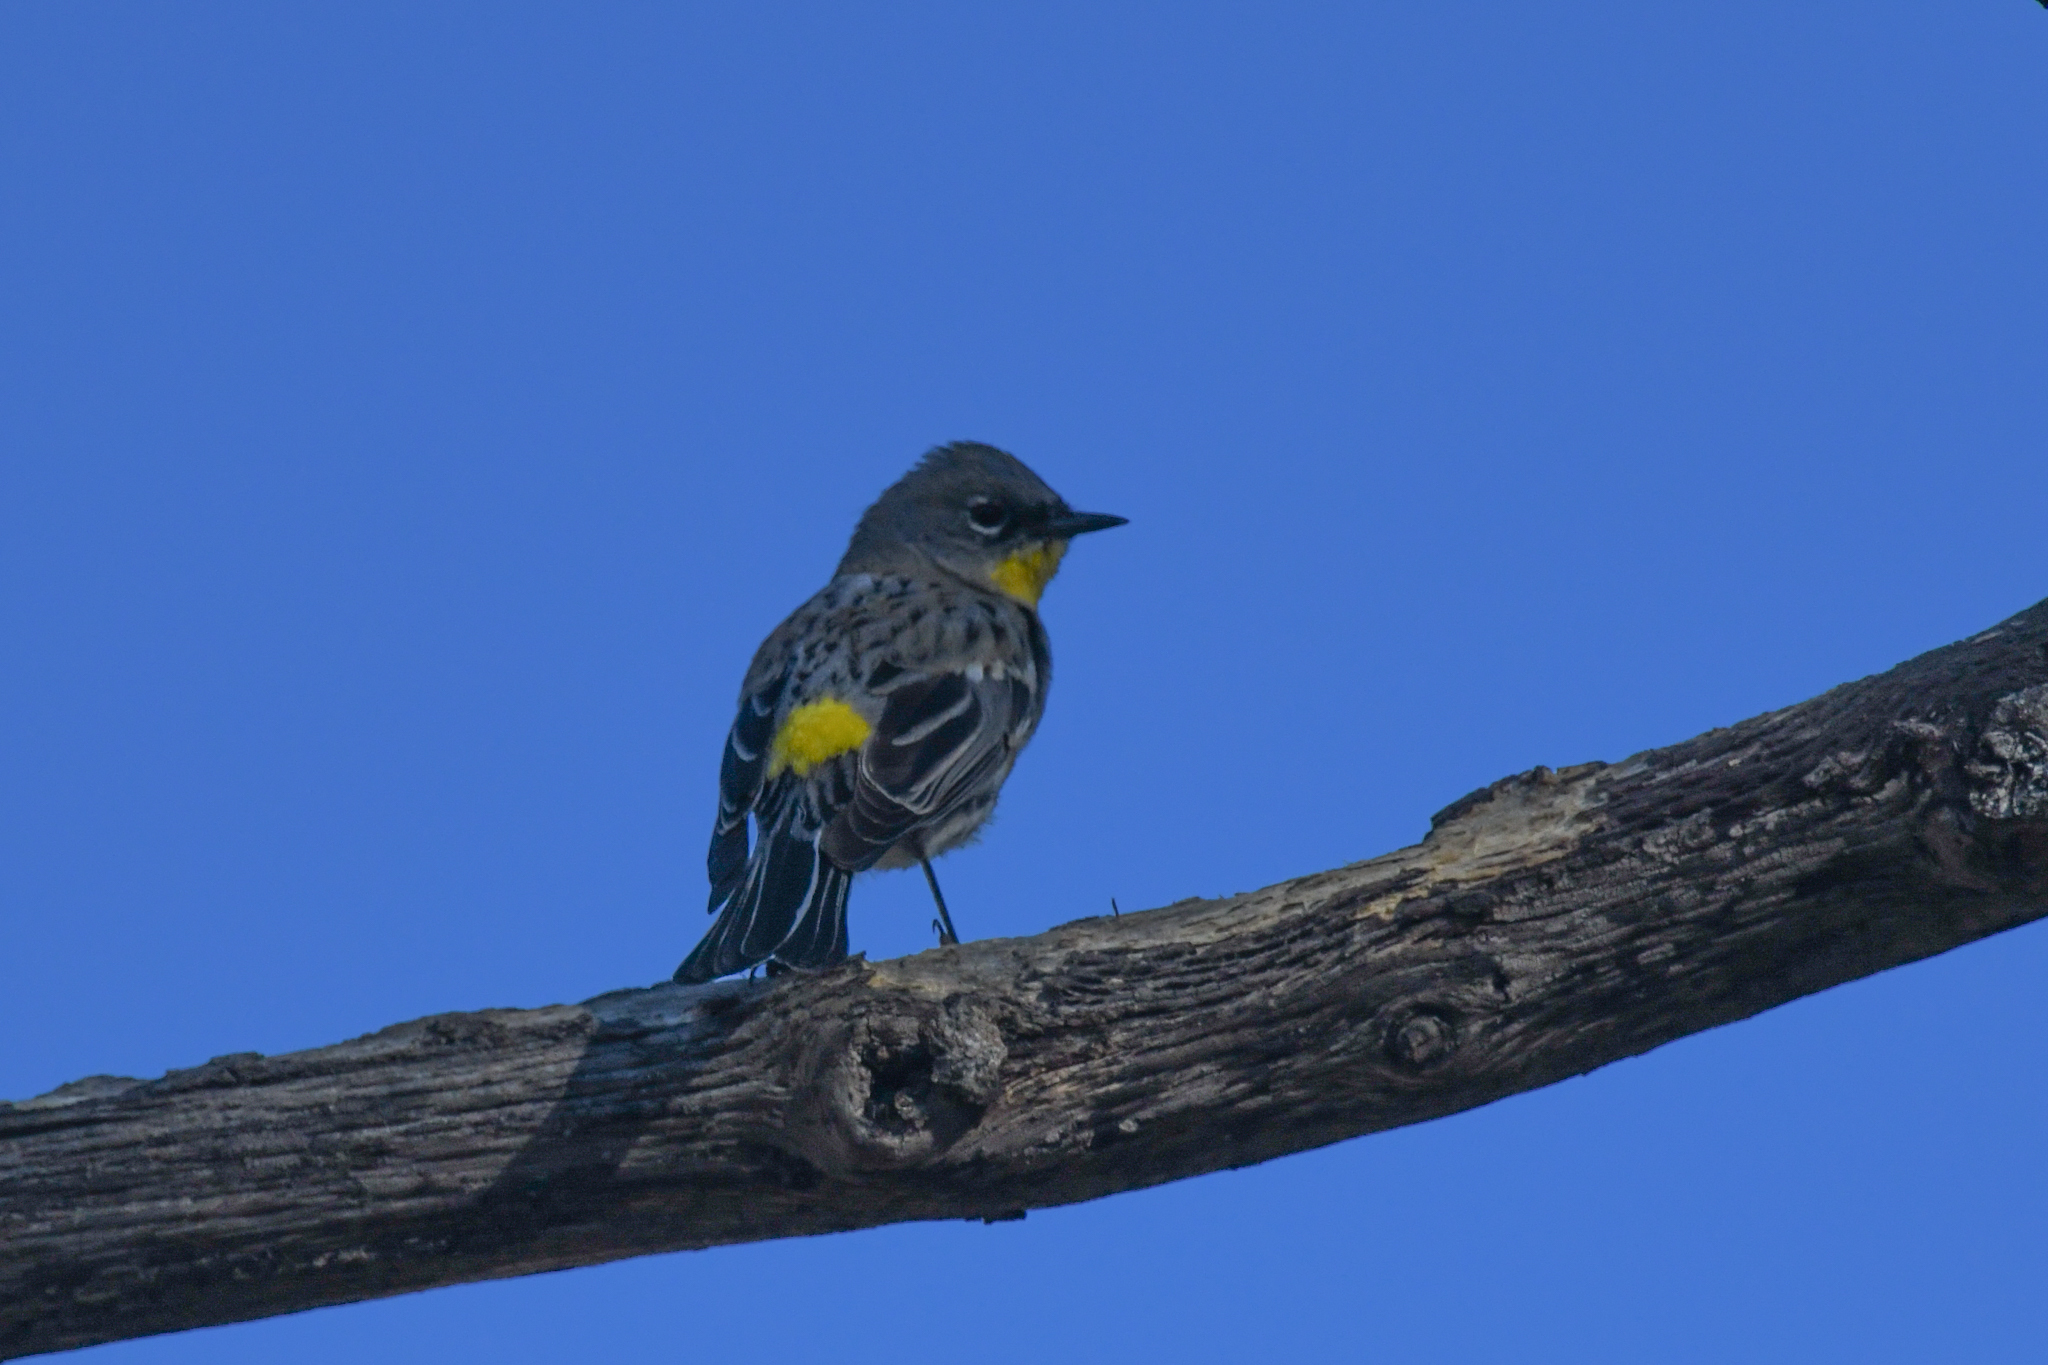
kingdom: Animalia
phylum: Chordata
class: Aves
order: Passeriformes
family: Parulidae
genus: Setophaga
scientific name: Setophaga coronata
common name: Myrtle warbler
